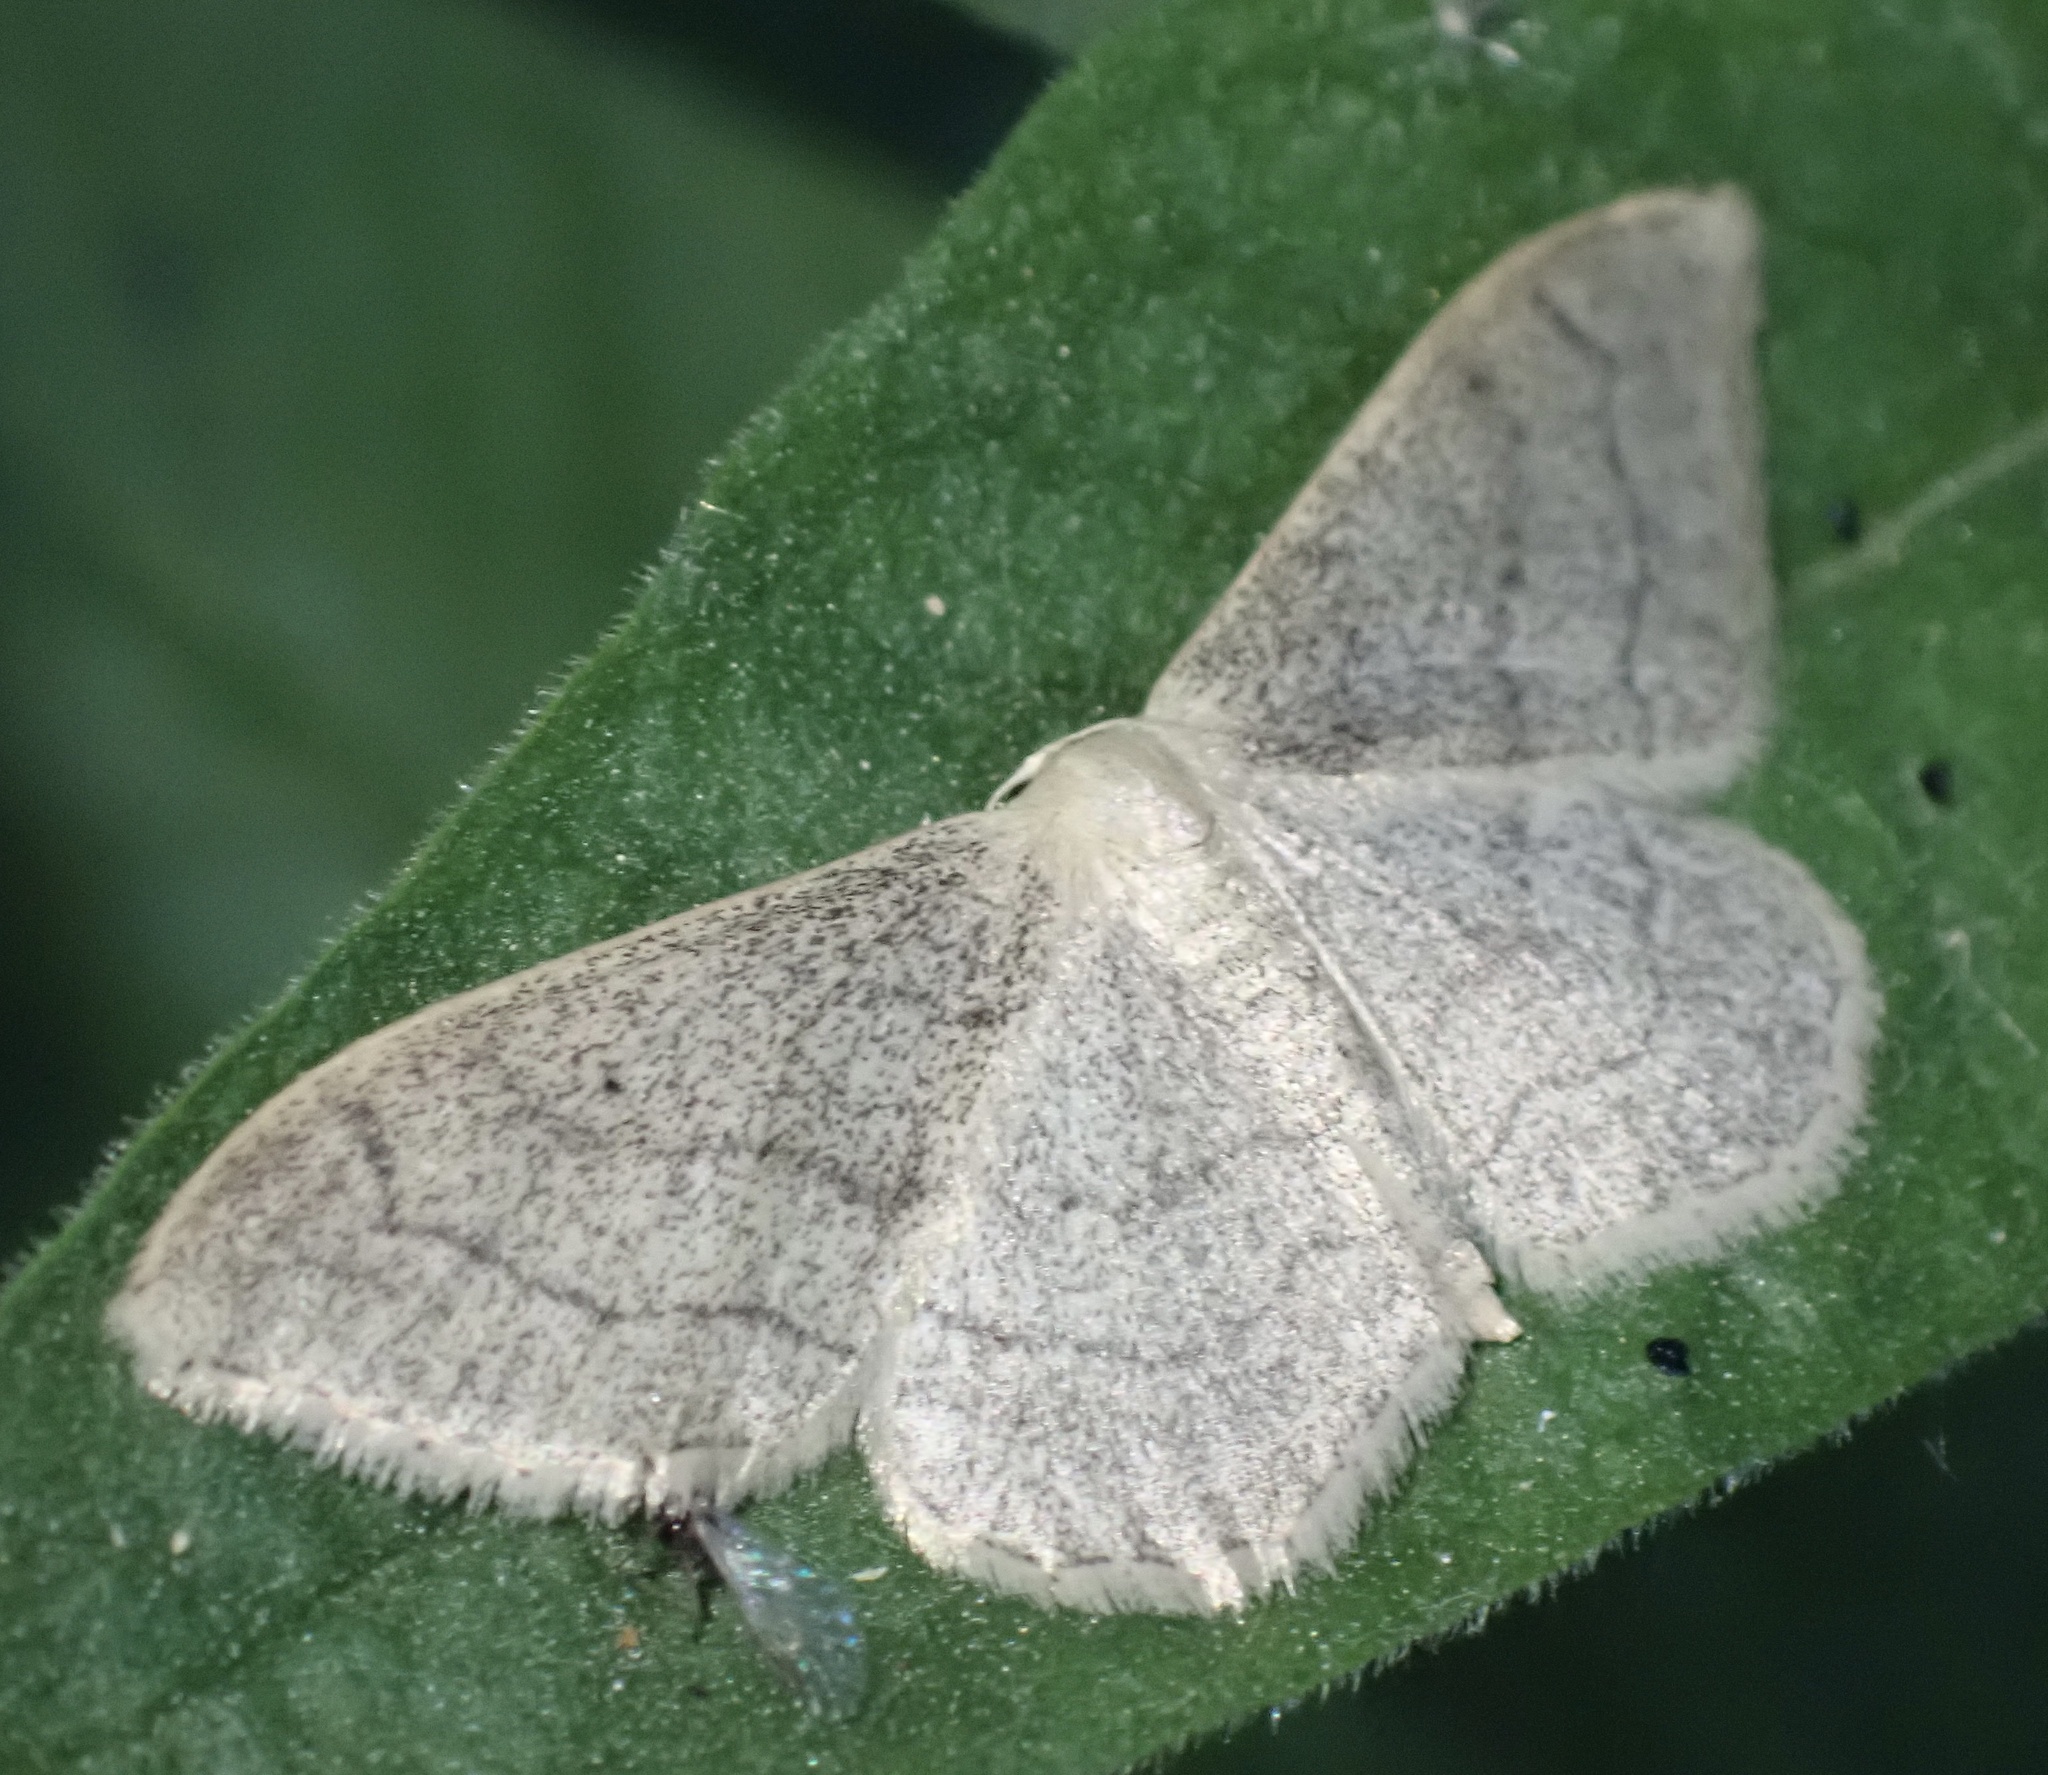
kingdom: Animalia
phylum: Arthropoda
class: Insecta
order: Lepidoptera
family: Geometridae
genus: Idaea
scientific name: Idaea aversata
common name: Riband wave
